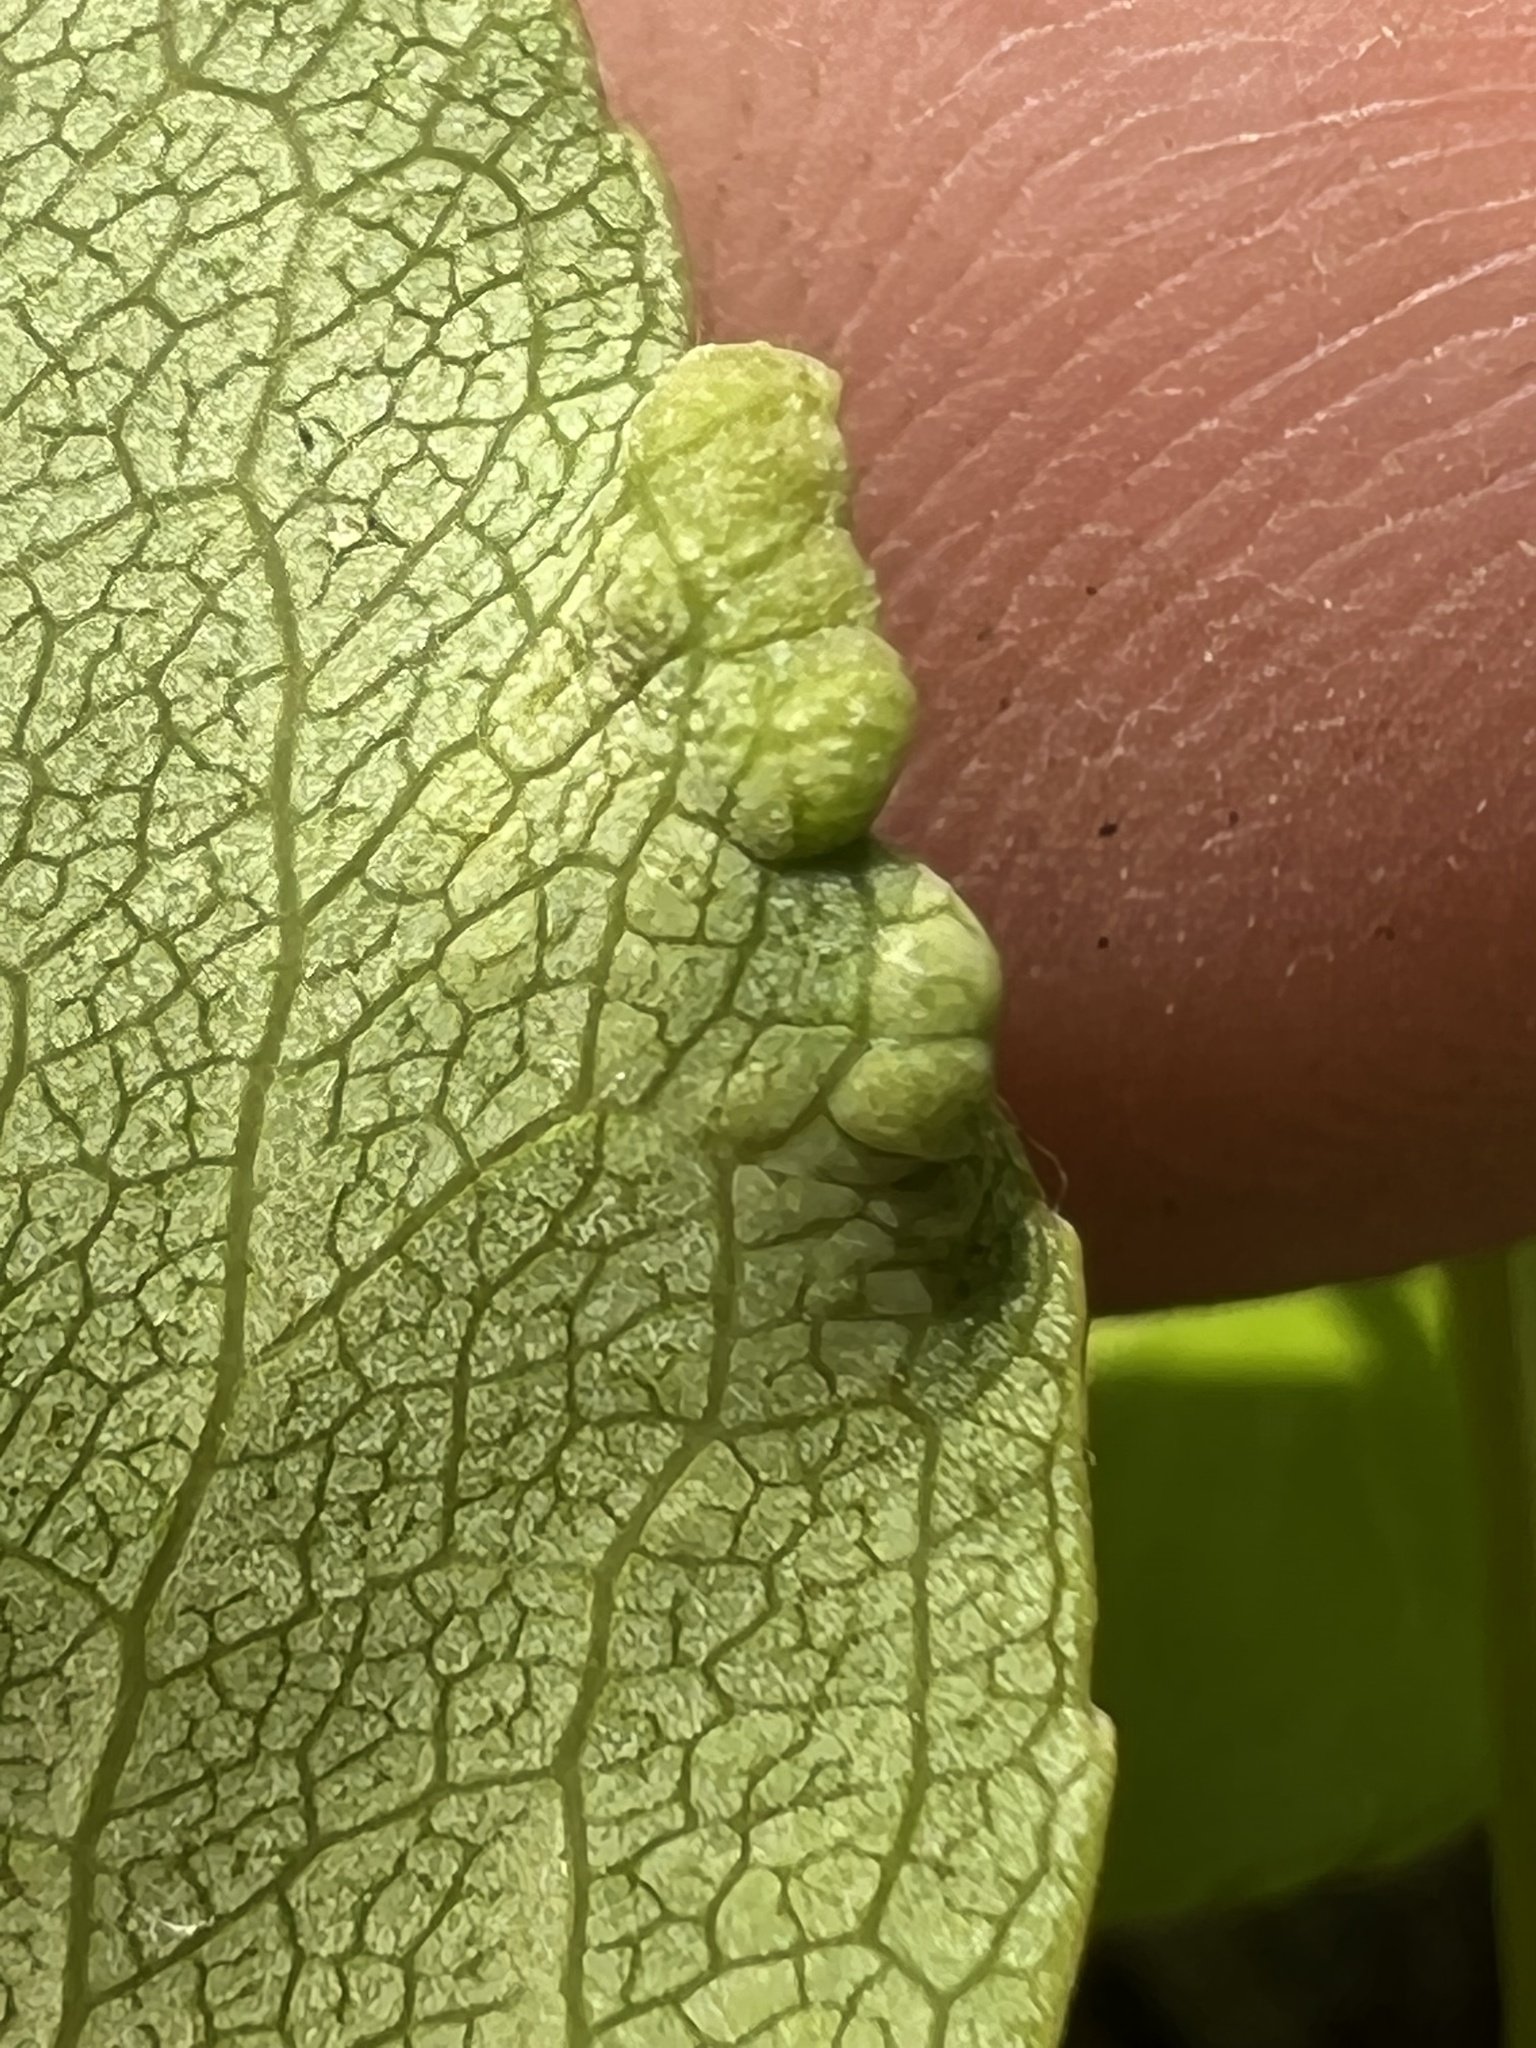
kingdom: Fungi
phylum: Ascomycota
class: Taphrinomycetes
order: Taphrinales
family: Taphrinaceae
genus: Taphrina
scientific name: Taphrina farlowii
